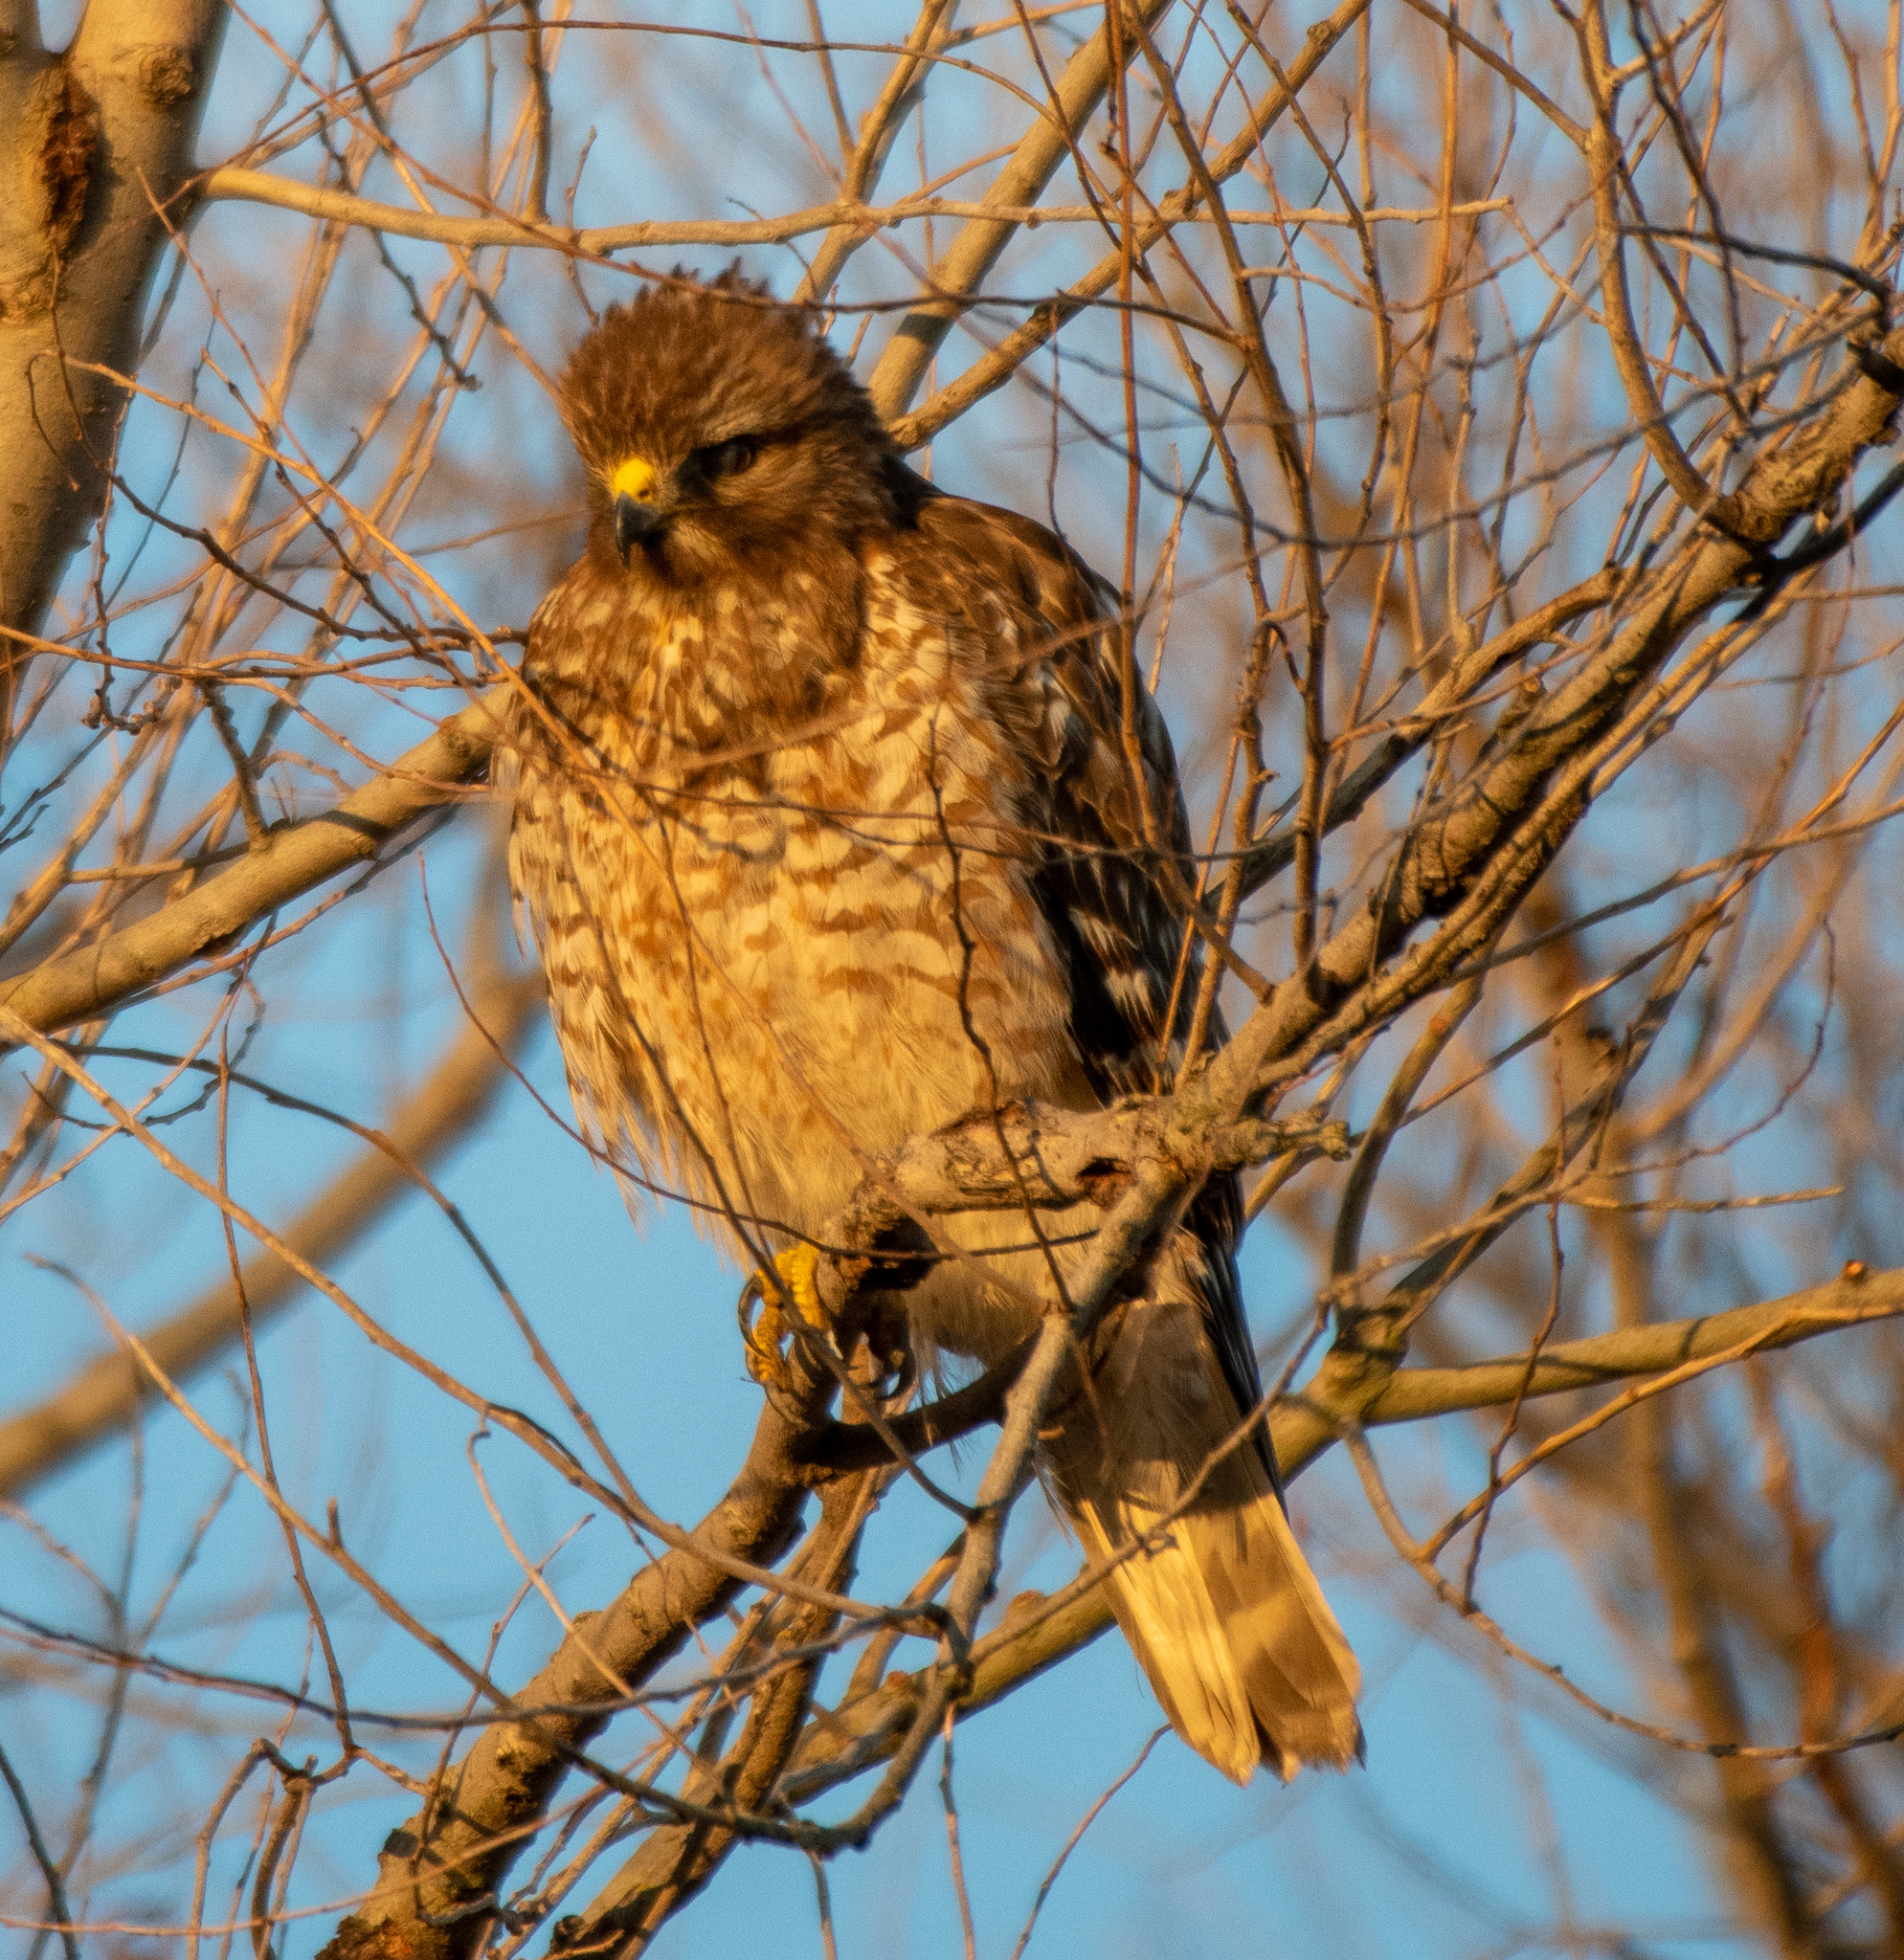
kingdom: Animalia
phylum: Chordata
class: Aves
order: Accipitriformes
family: Accipitridae
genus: Buteo
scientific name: Buteo lineatus
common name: Red-shouldered hawk
